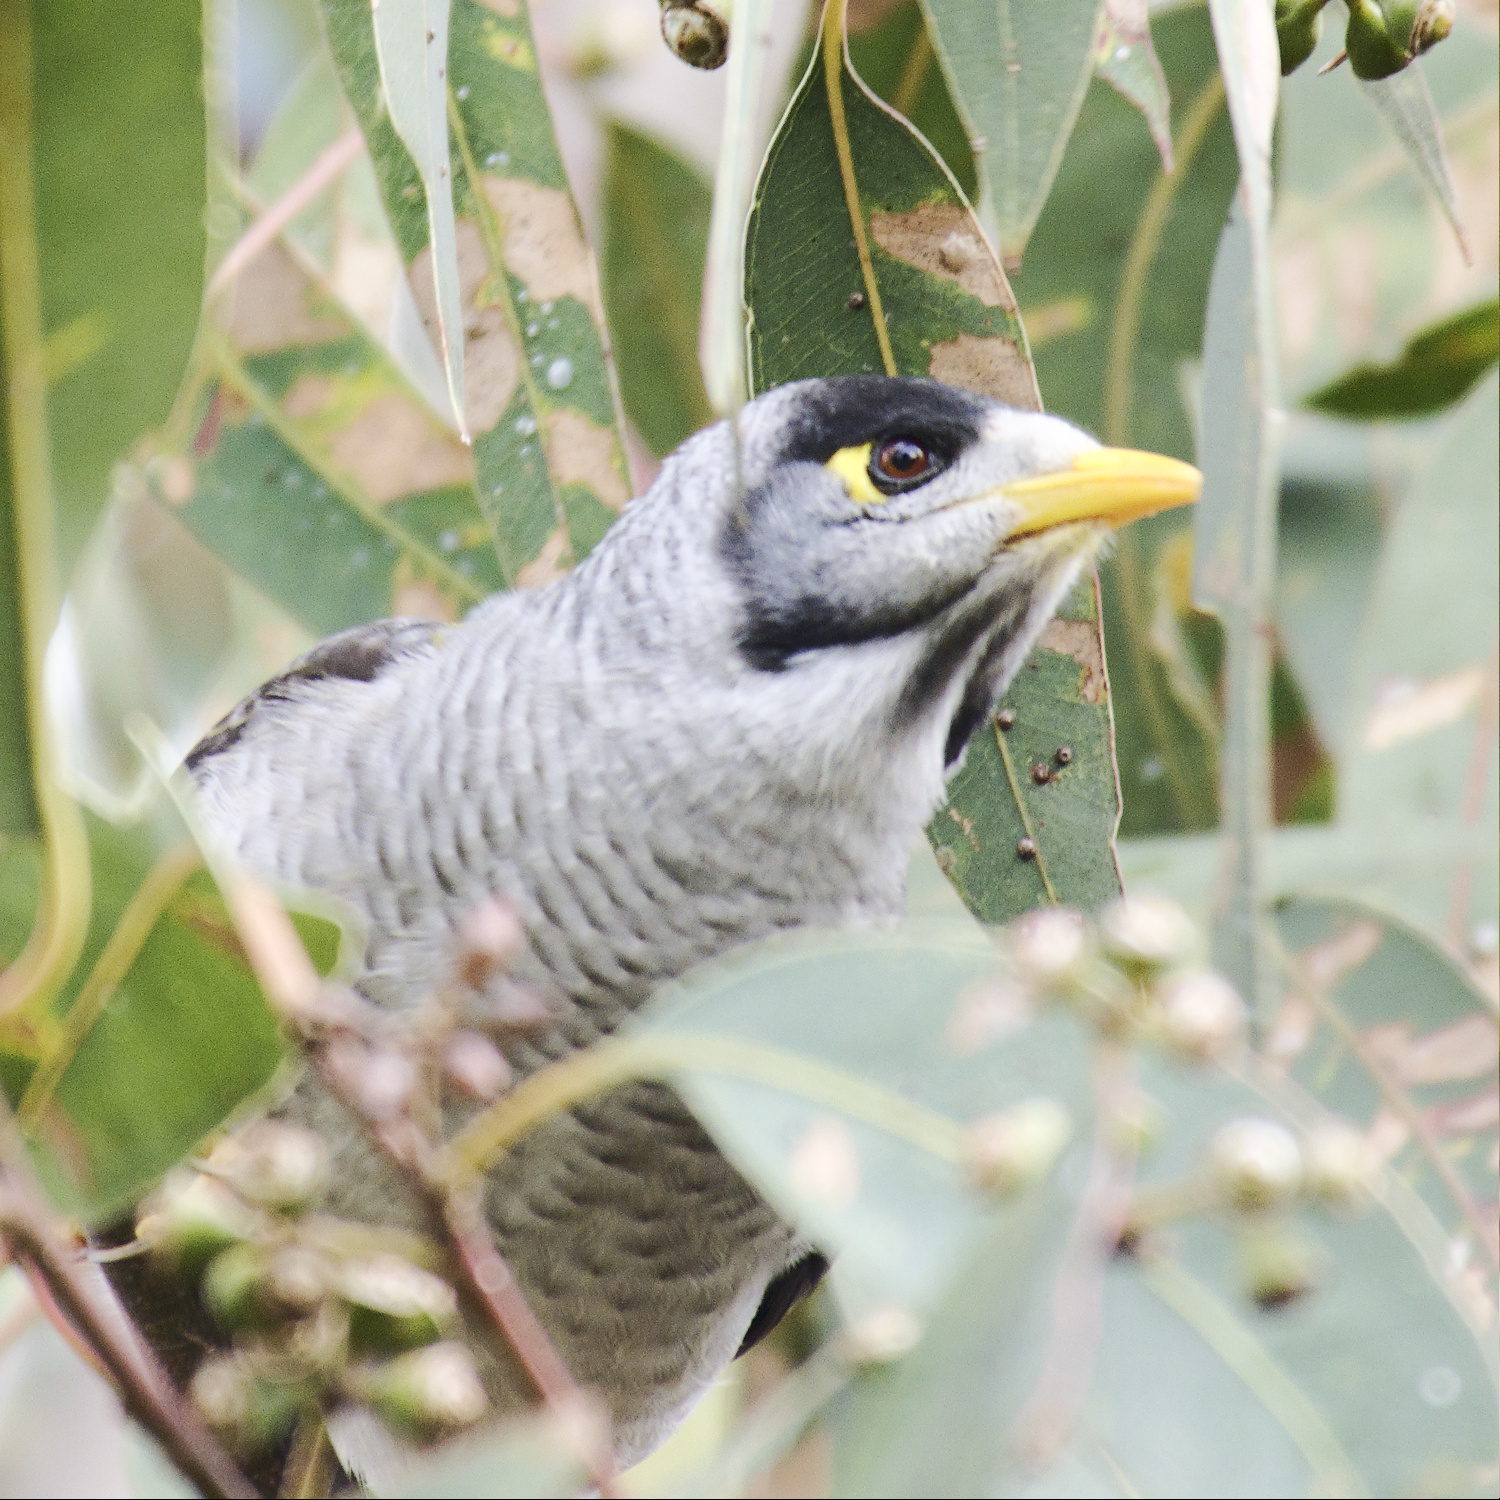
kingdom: Animalia
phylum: Chordata
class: Aves
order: Passeriformes
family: Meliphagidae
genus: Manorina
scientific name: Manorina melanocephala
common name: Noisy miner
